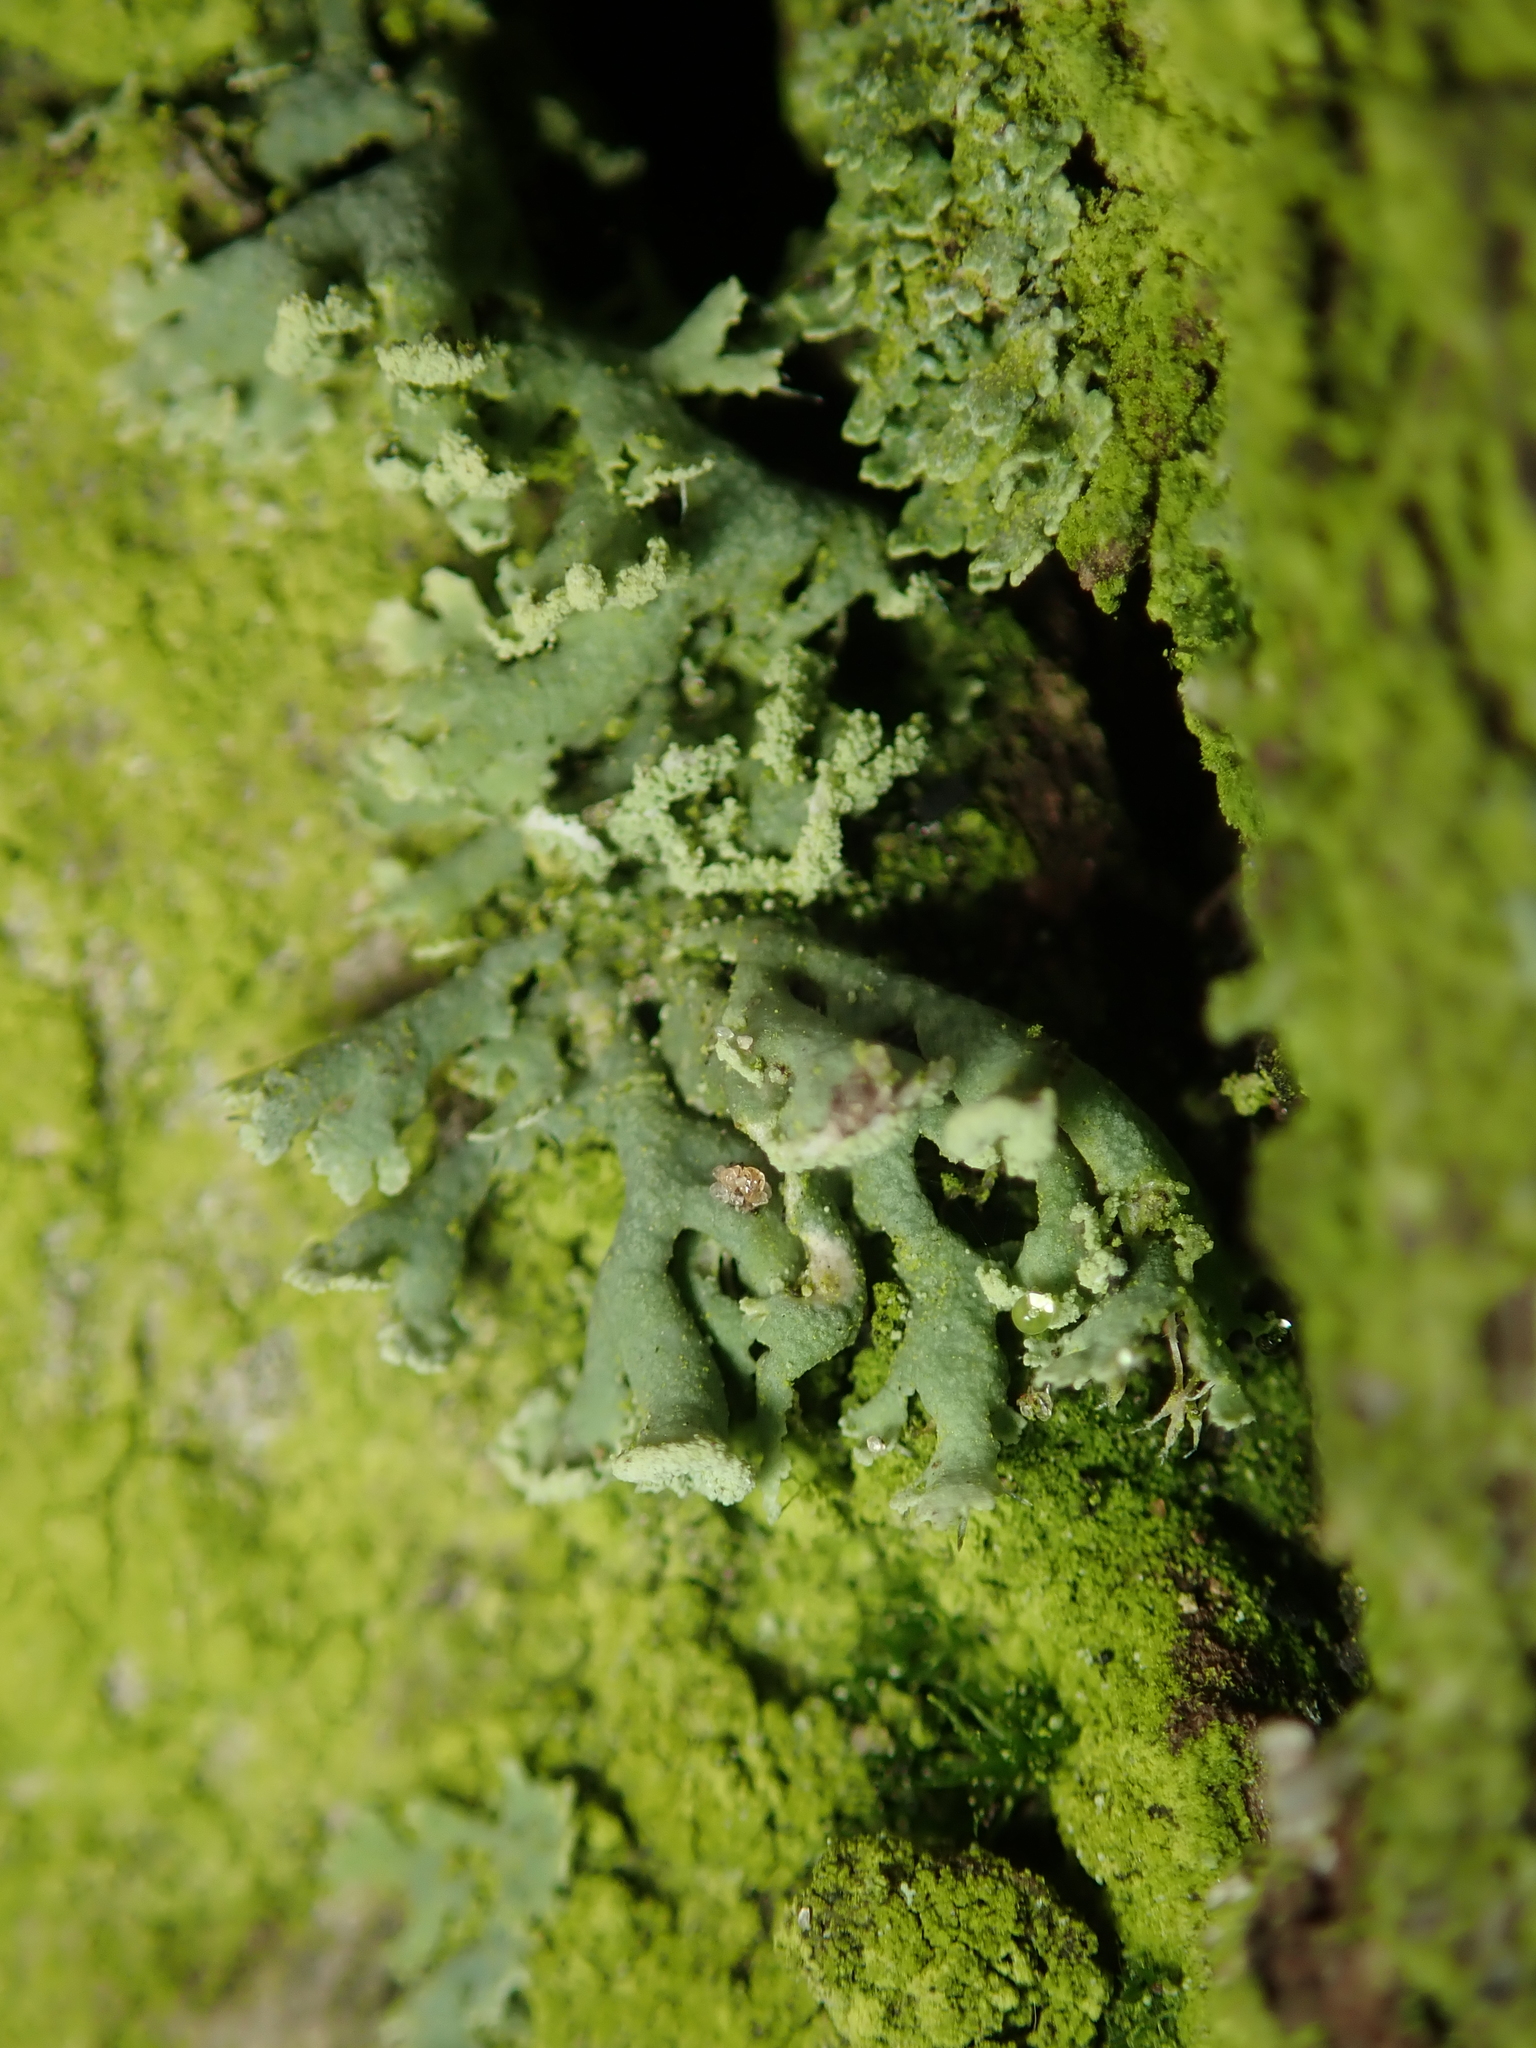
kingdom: Fungi
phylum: Ascomycota
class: Lecanoromycetes
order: Caliciales
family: Physciaceae
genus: Physcia
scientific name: Physcia tenella
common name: Fringed rosette lichen
